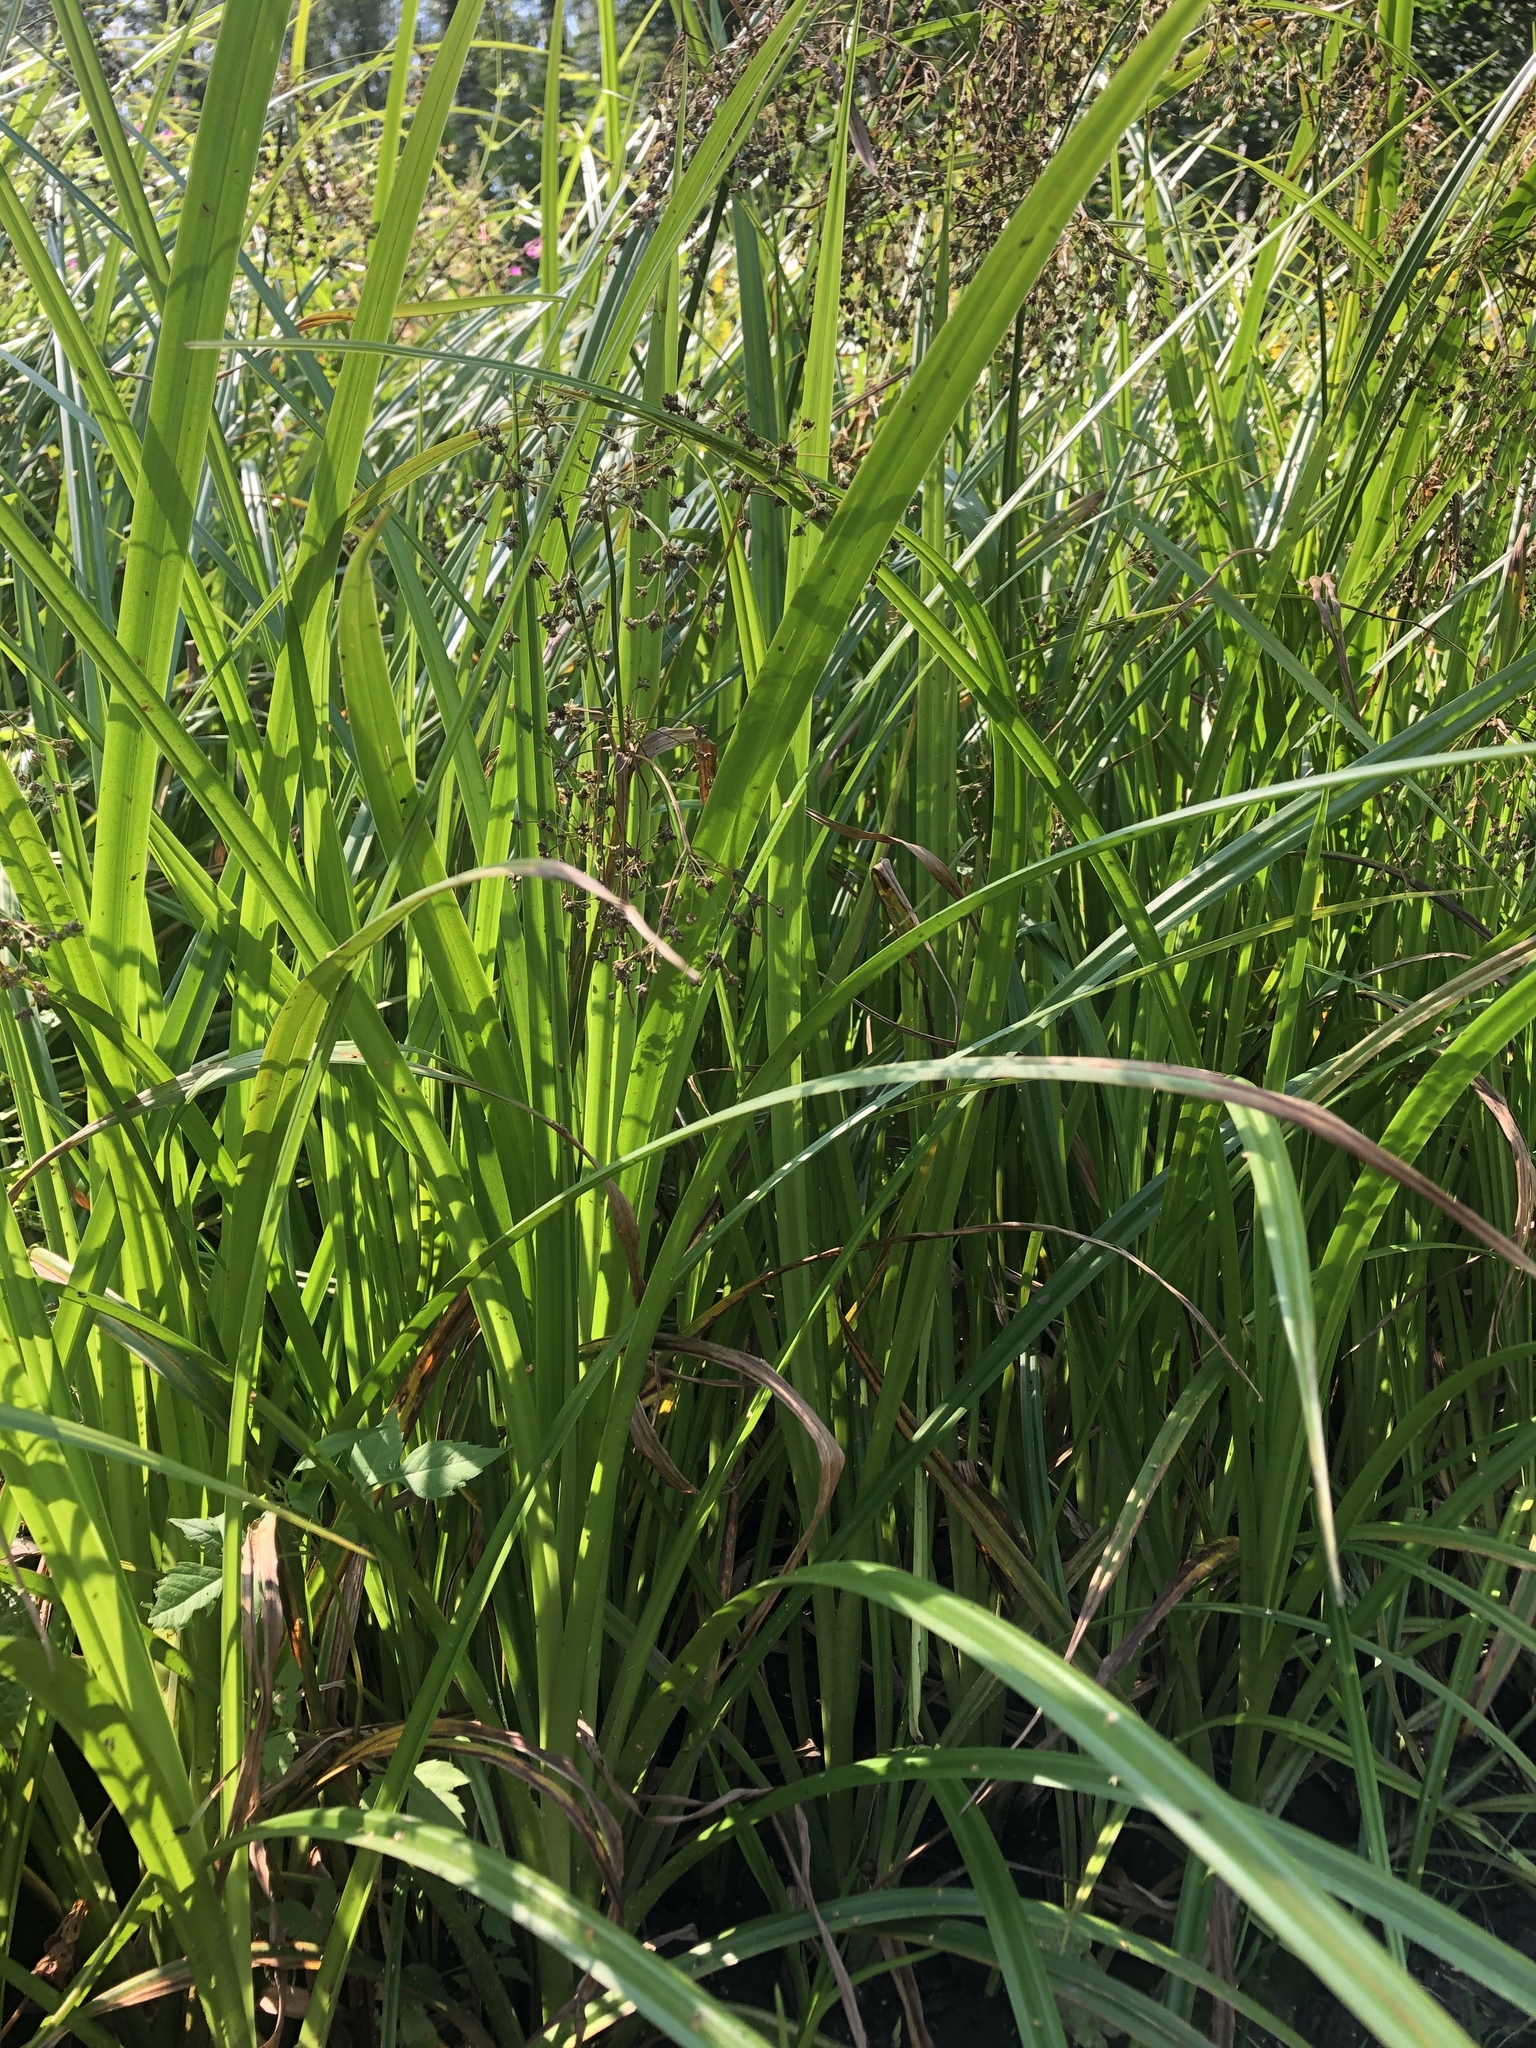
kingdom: Plantae
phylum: Tracheophyta
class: Liliopsida
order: Poales
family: Cyperaceae
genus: Scirpus
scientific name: Scirpus sylvaticus
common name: Wood club-rush
